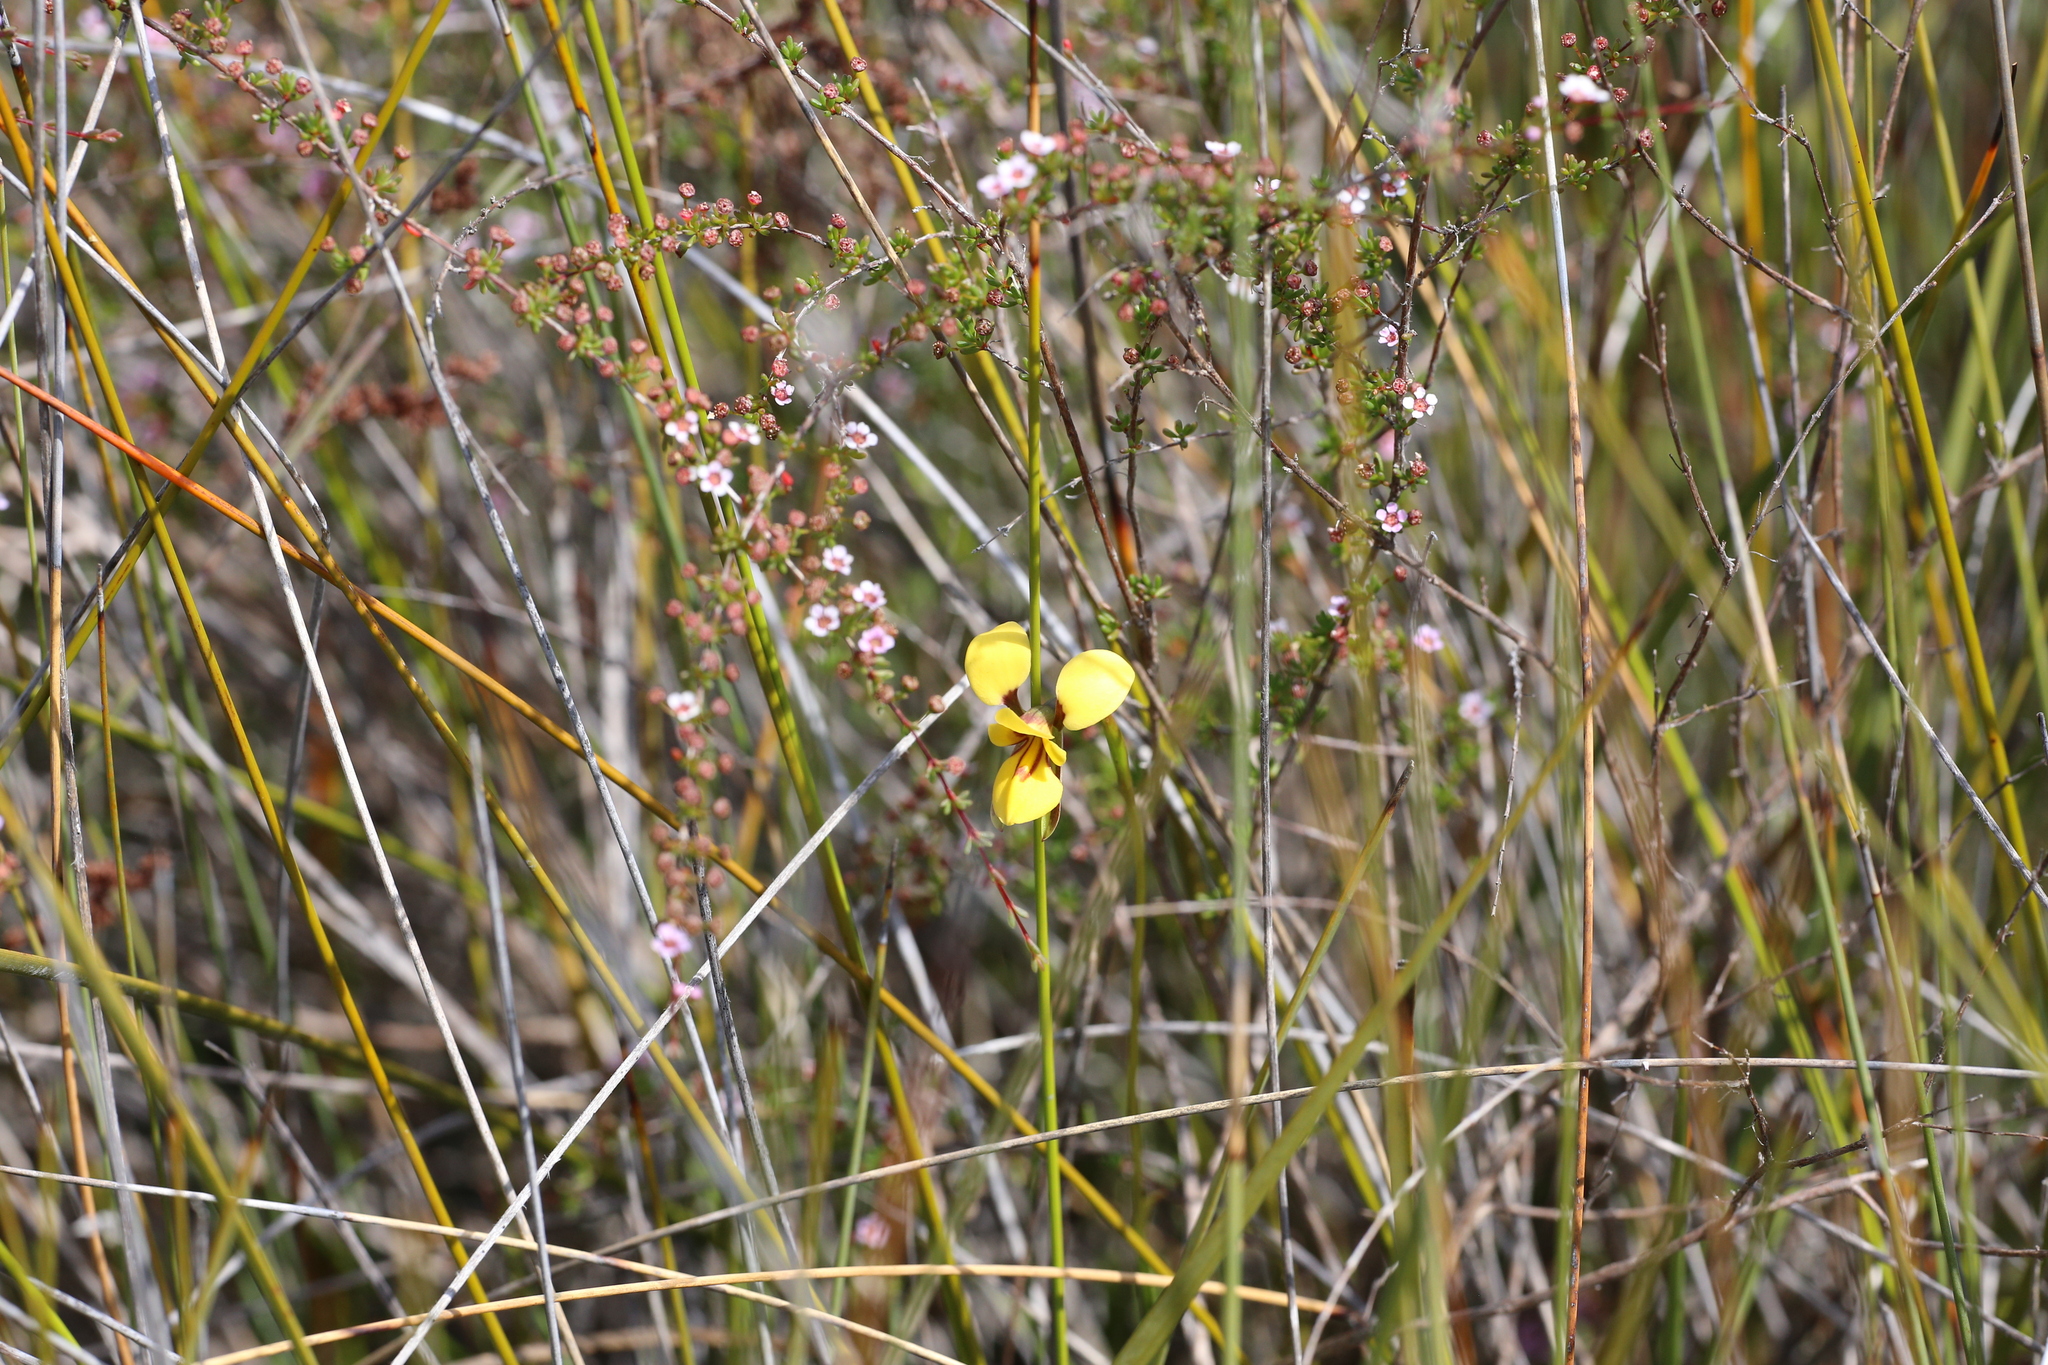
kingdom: Plantae
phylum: Tracheophyta
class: Liliopsida
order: Asparagales
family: Orchidaceae
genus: Diuris
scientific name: Diuris concinna
